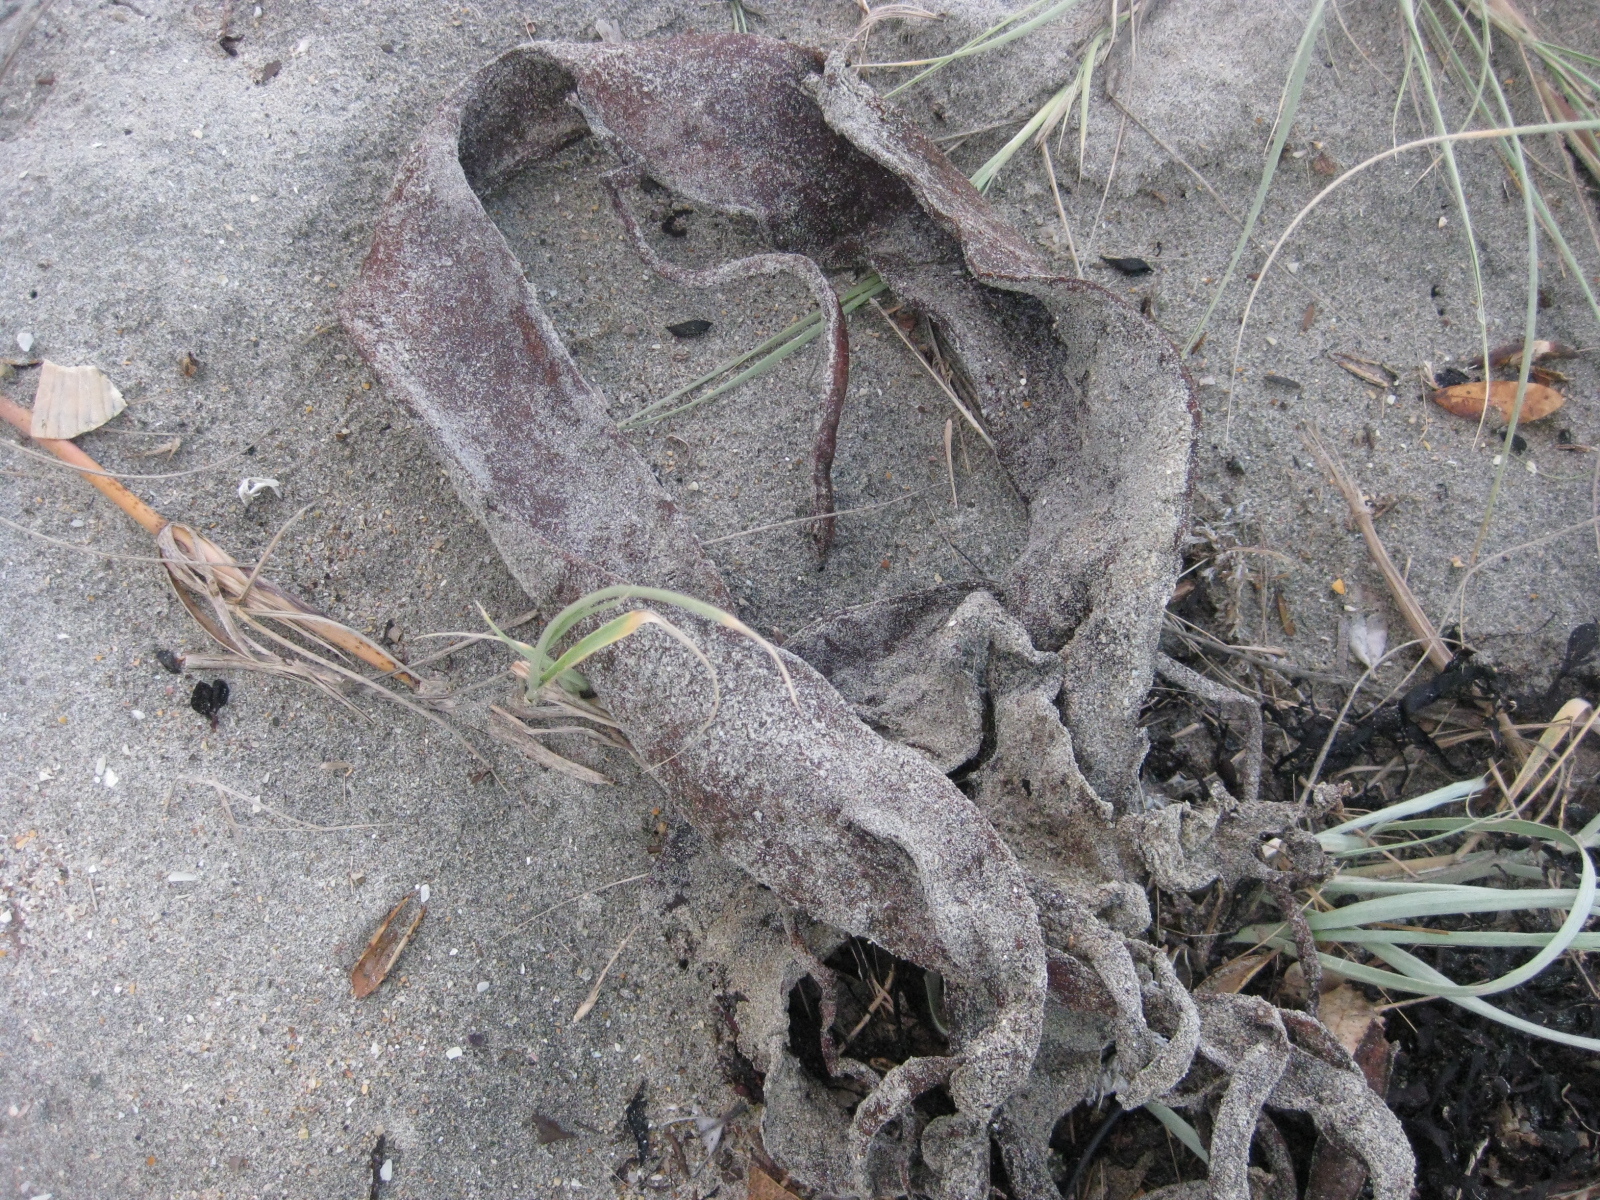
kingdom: Chromista
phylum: Ochrophyta
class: Phaeophyceae
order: Fucales
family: Durvillaeaceae
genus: Durvillaea
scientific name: Durvillaea antarctica
